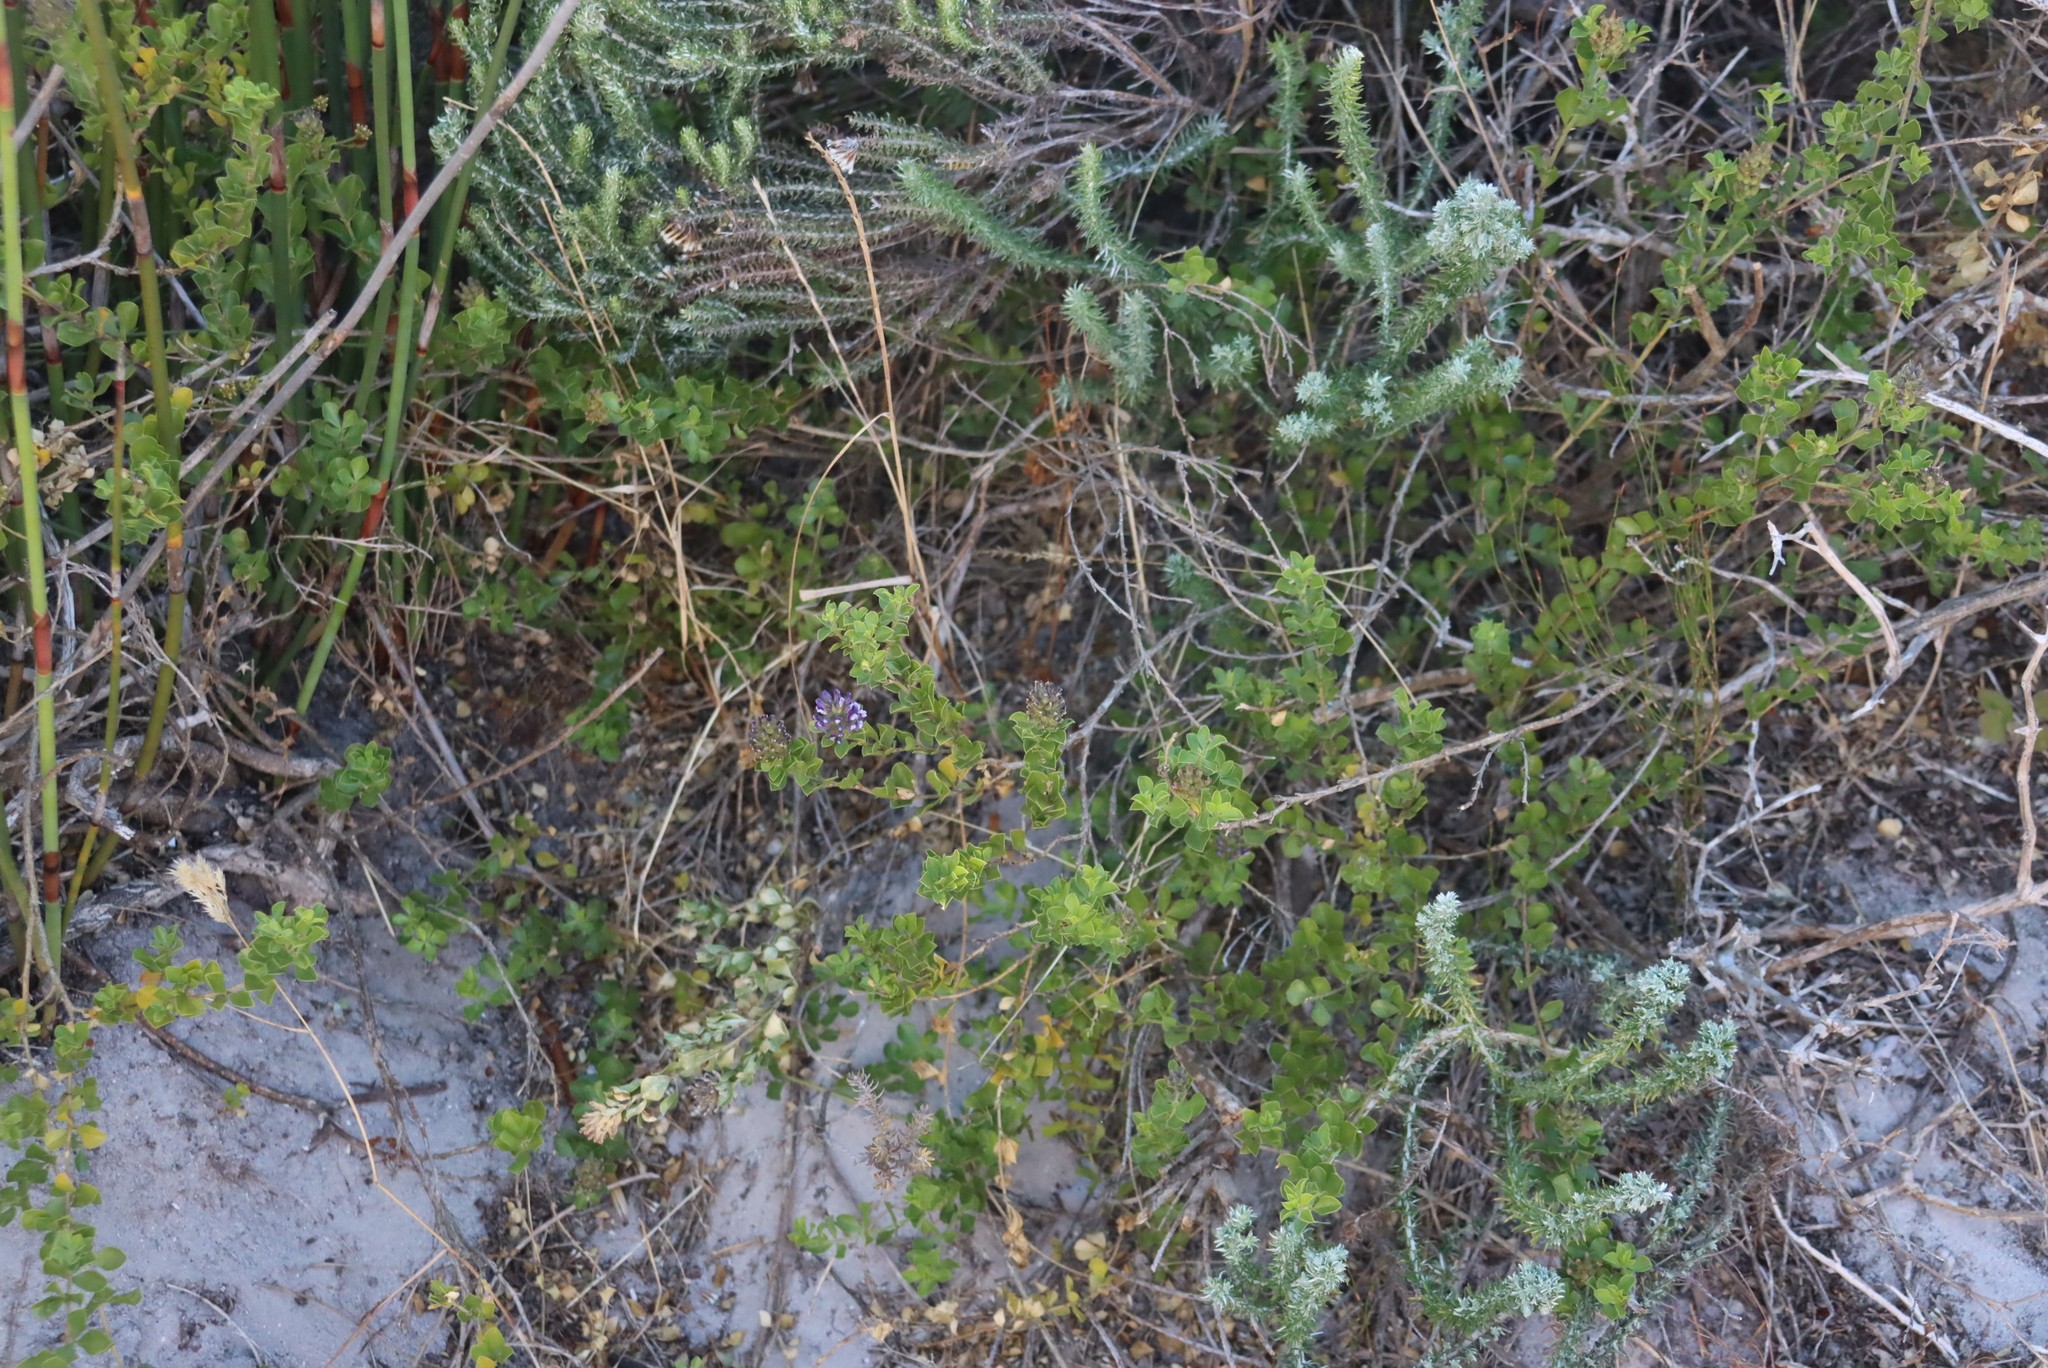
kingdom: Plantae
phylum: Tracheophyta
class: Magnoliopsida
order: Fabales
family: Fabaceae
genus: Psoralea
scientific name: Psoralea bracteolata
